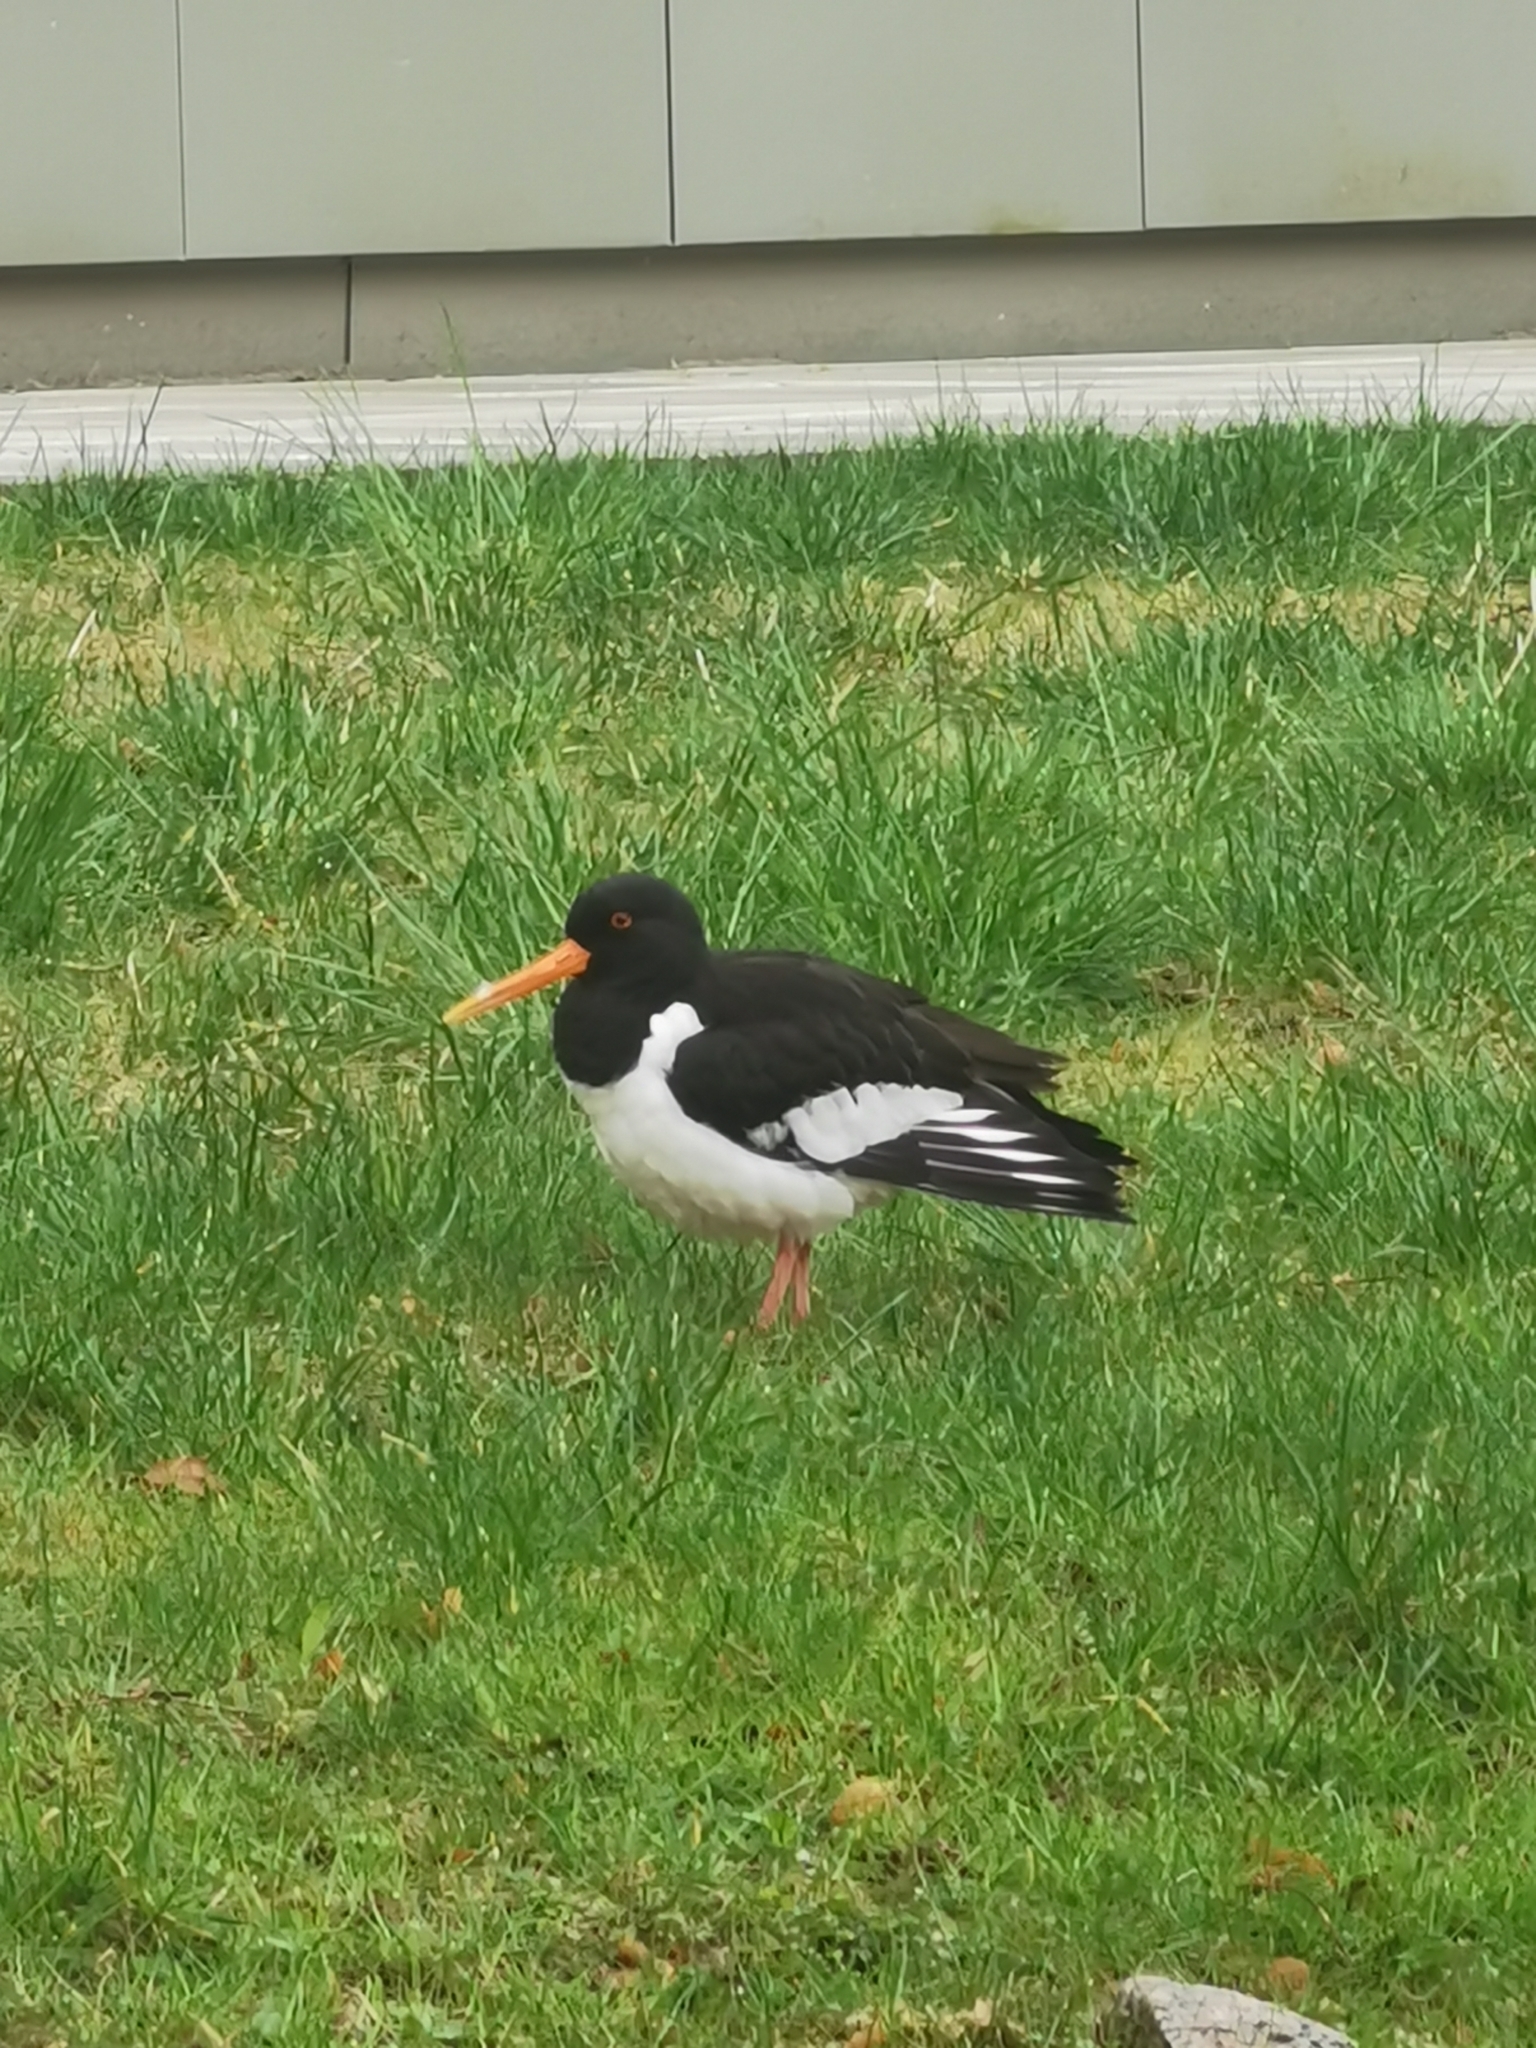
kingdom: Animalia
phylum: Chordata
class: Aves
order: Charadriiformes
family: Haematopodidae
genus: Haematopus
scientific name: Haematopus ostralegus
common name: Eurasian oystercatcher
